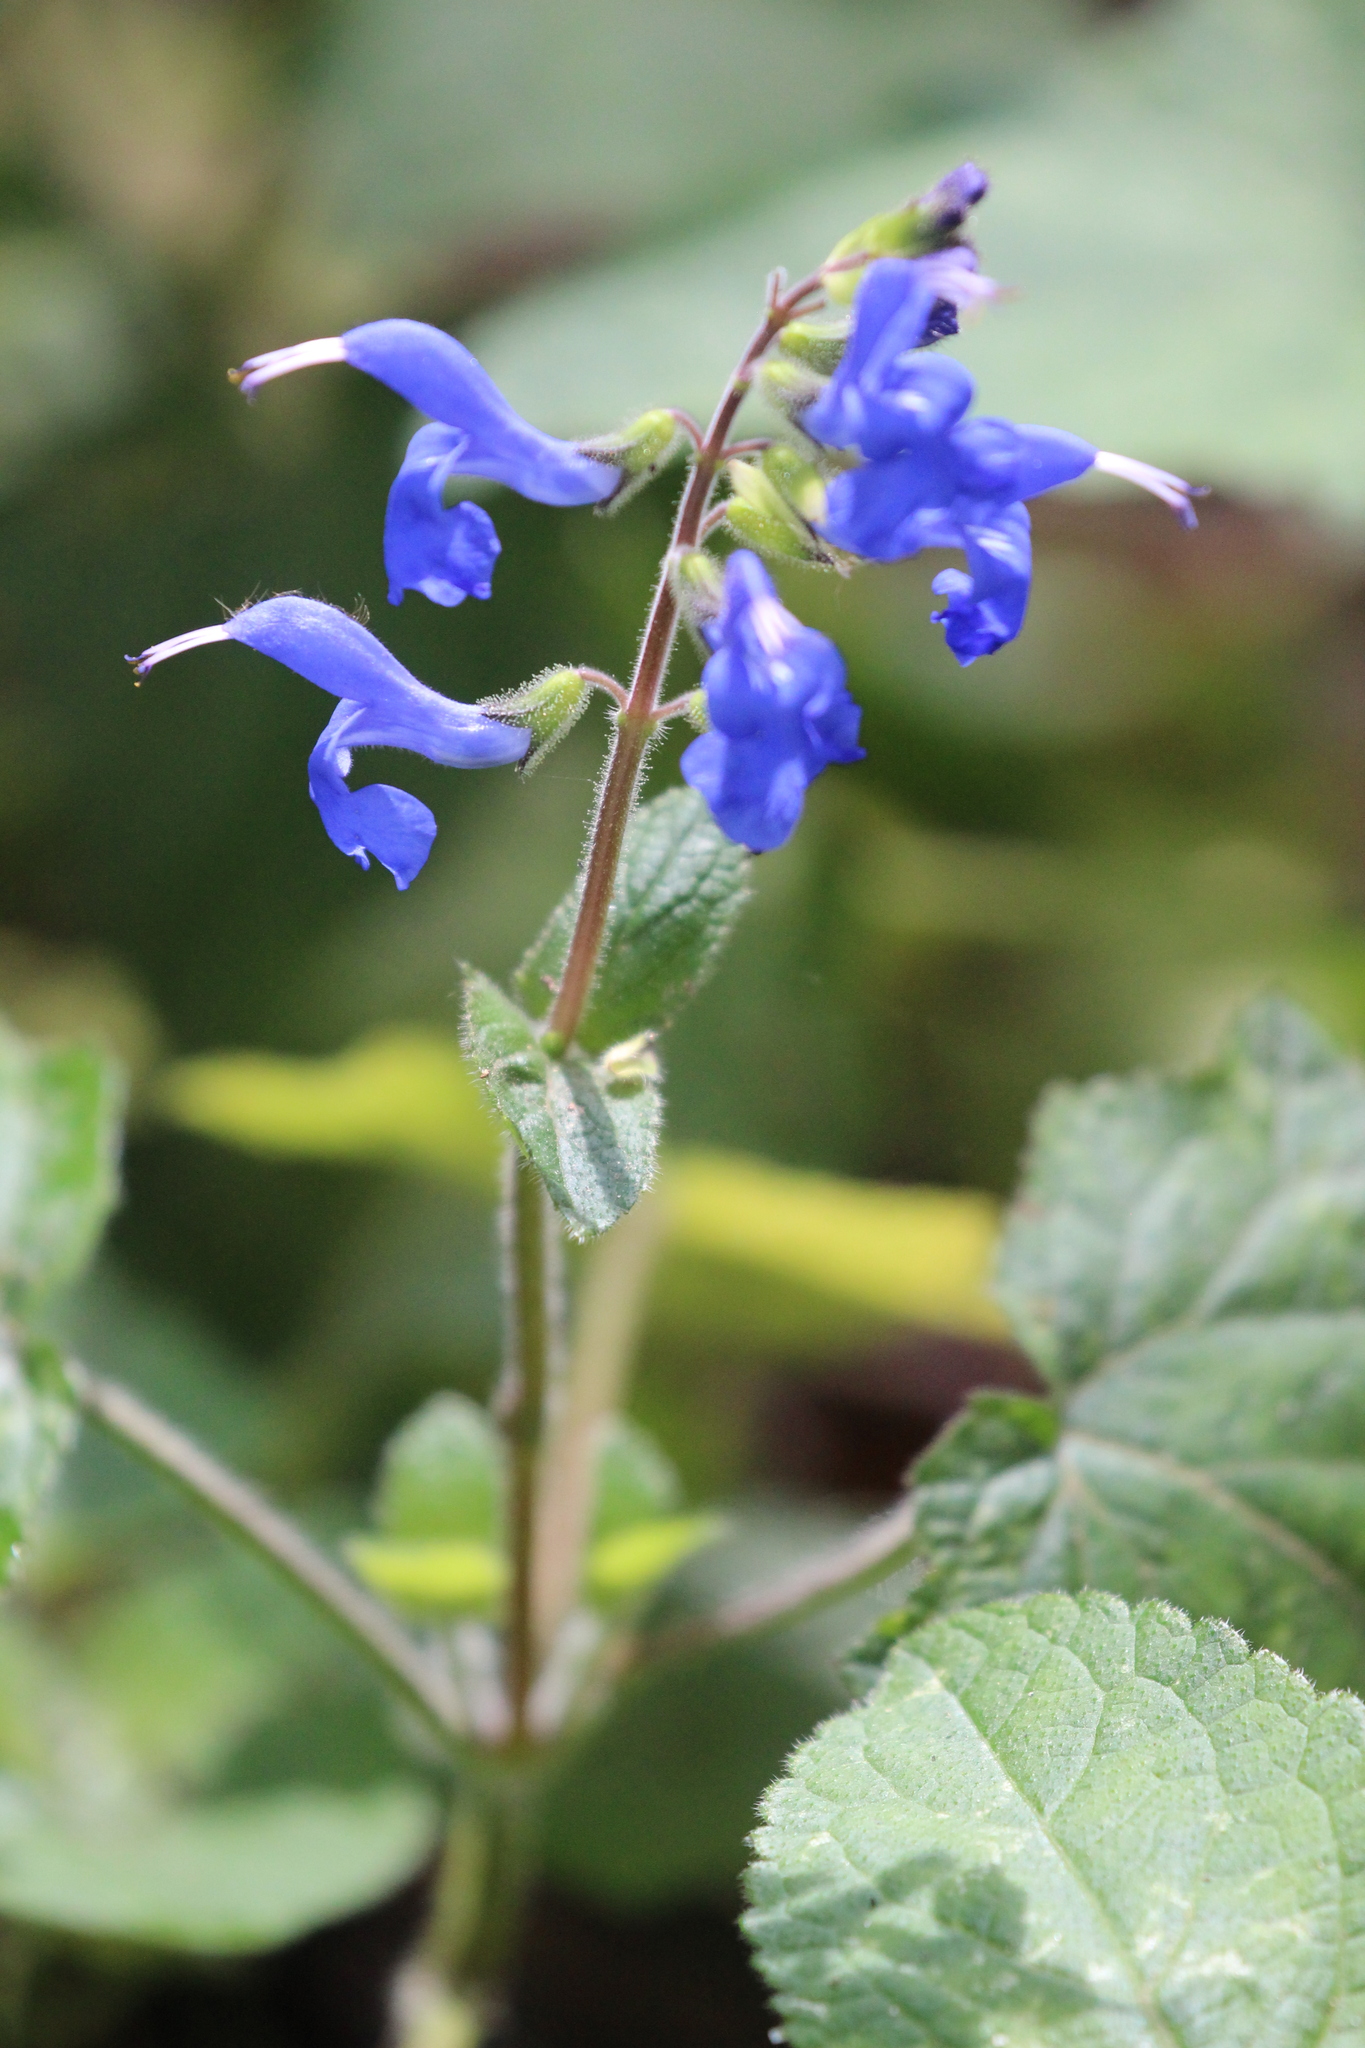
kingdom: Plantae
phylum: Tracheophyta
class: Magnoliopsida
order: Lamiales
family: Lamiaceae
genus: Salvia
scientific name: Salvia scutellarioides
